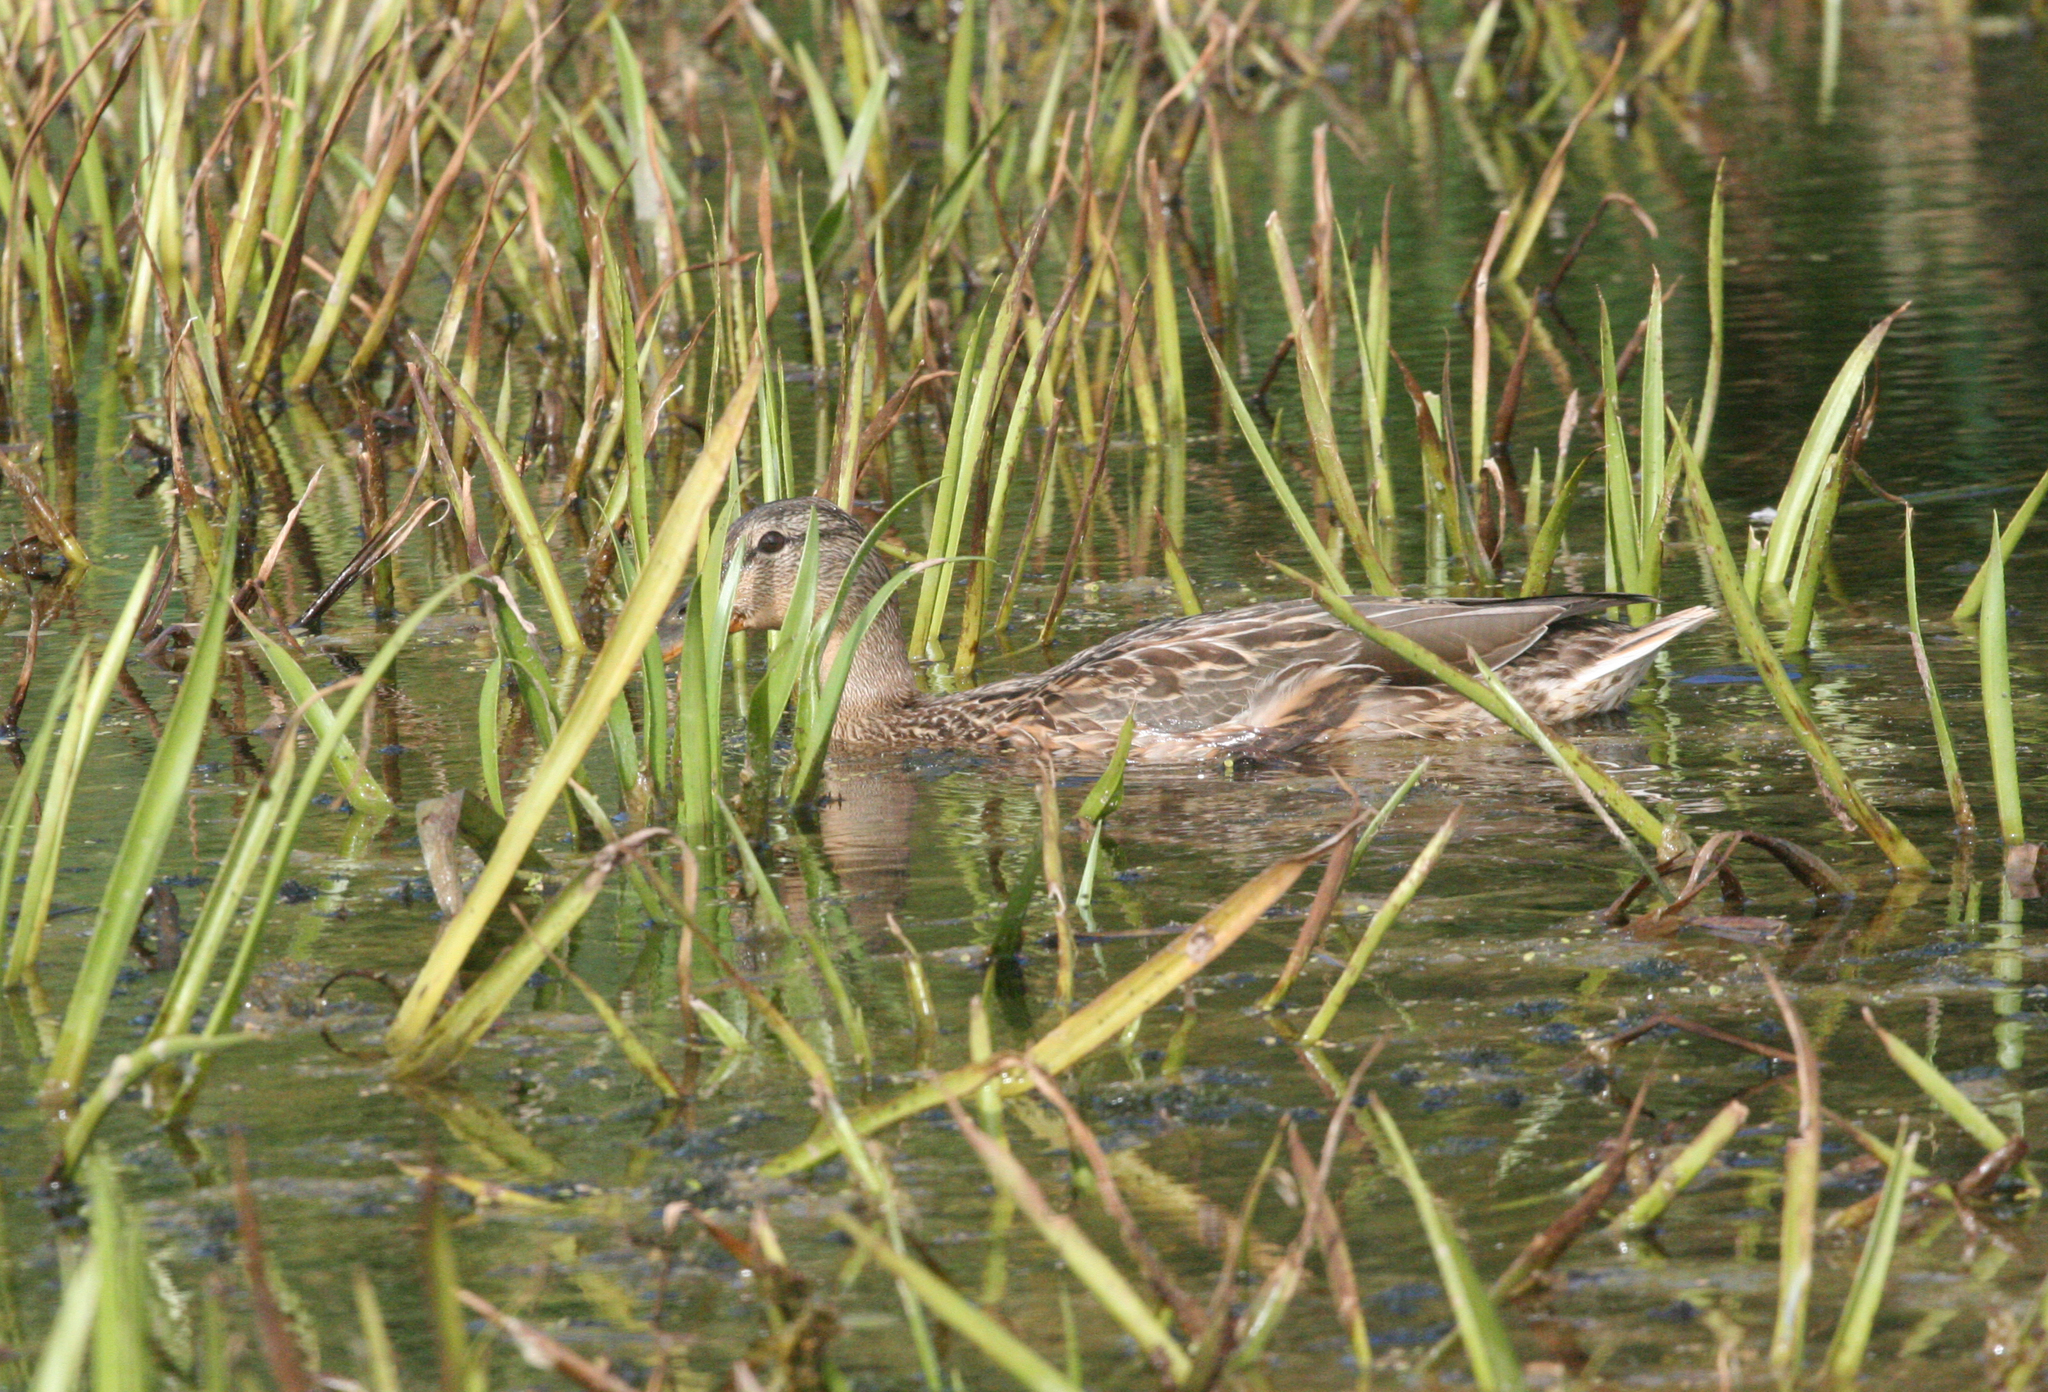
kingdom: Animalia
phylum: Chordata
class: Aves
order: Anseriformes
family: Anatidae
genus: Anas
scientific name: Anas platyrhynchos
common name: Mallard
